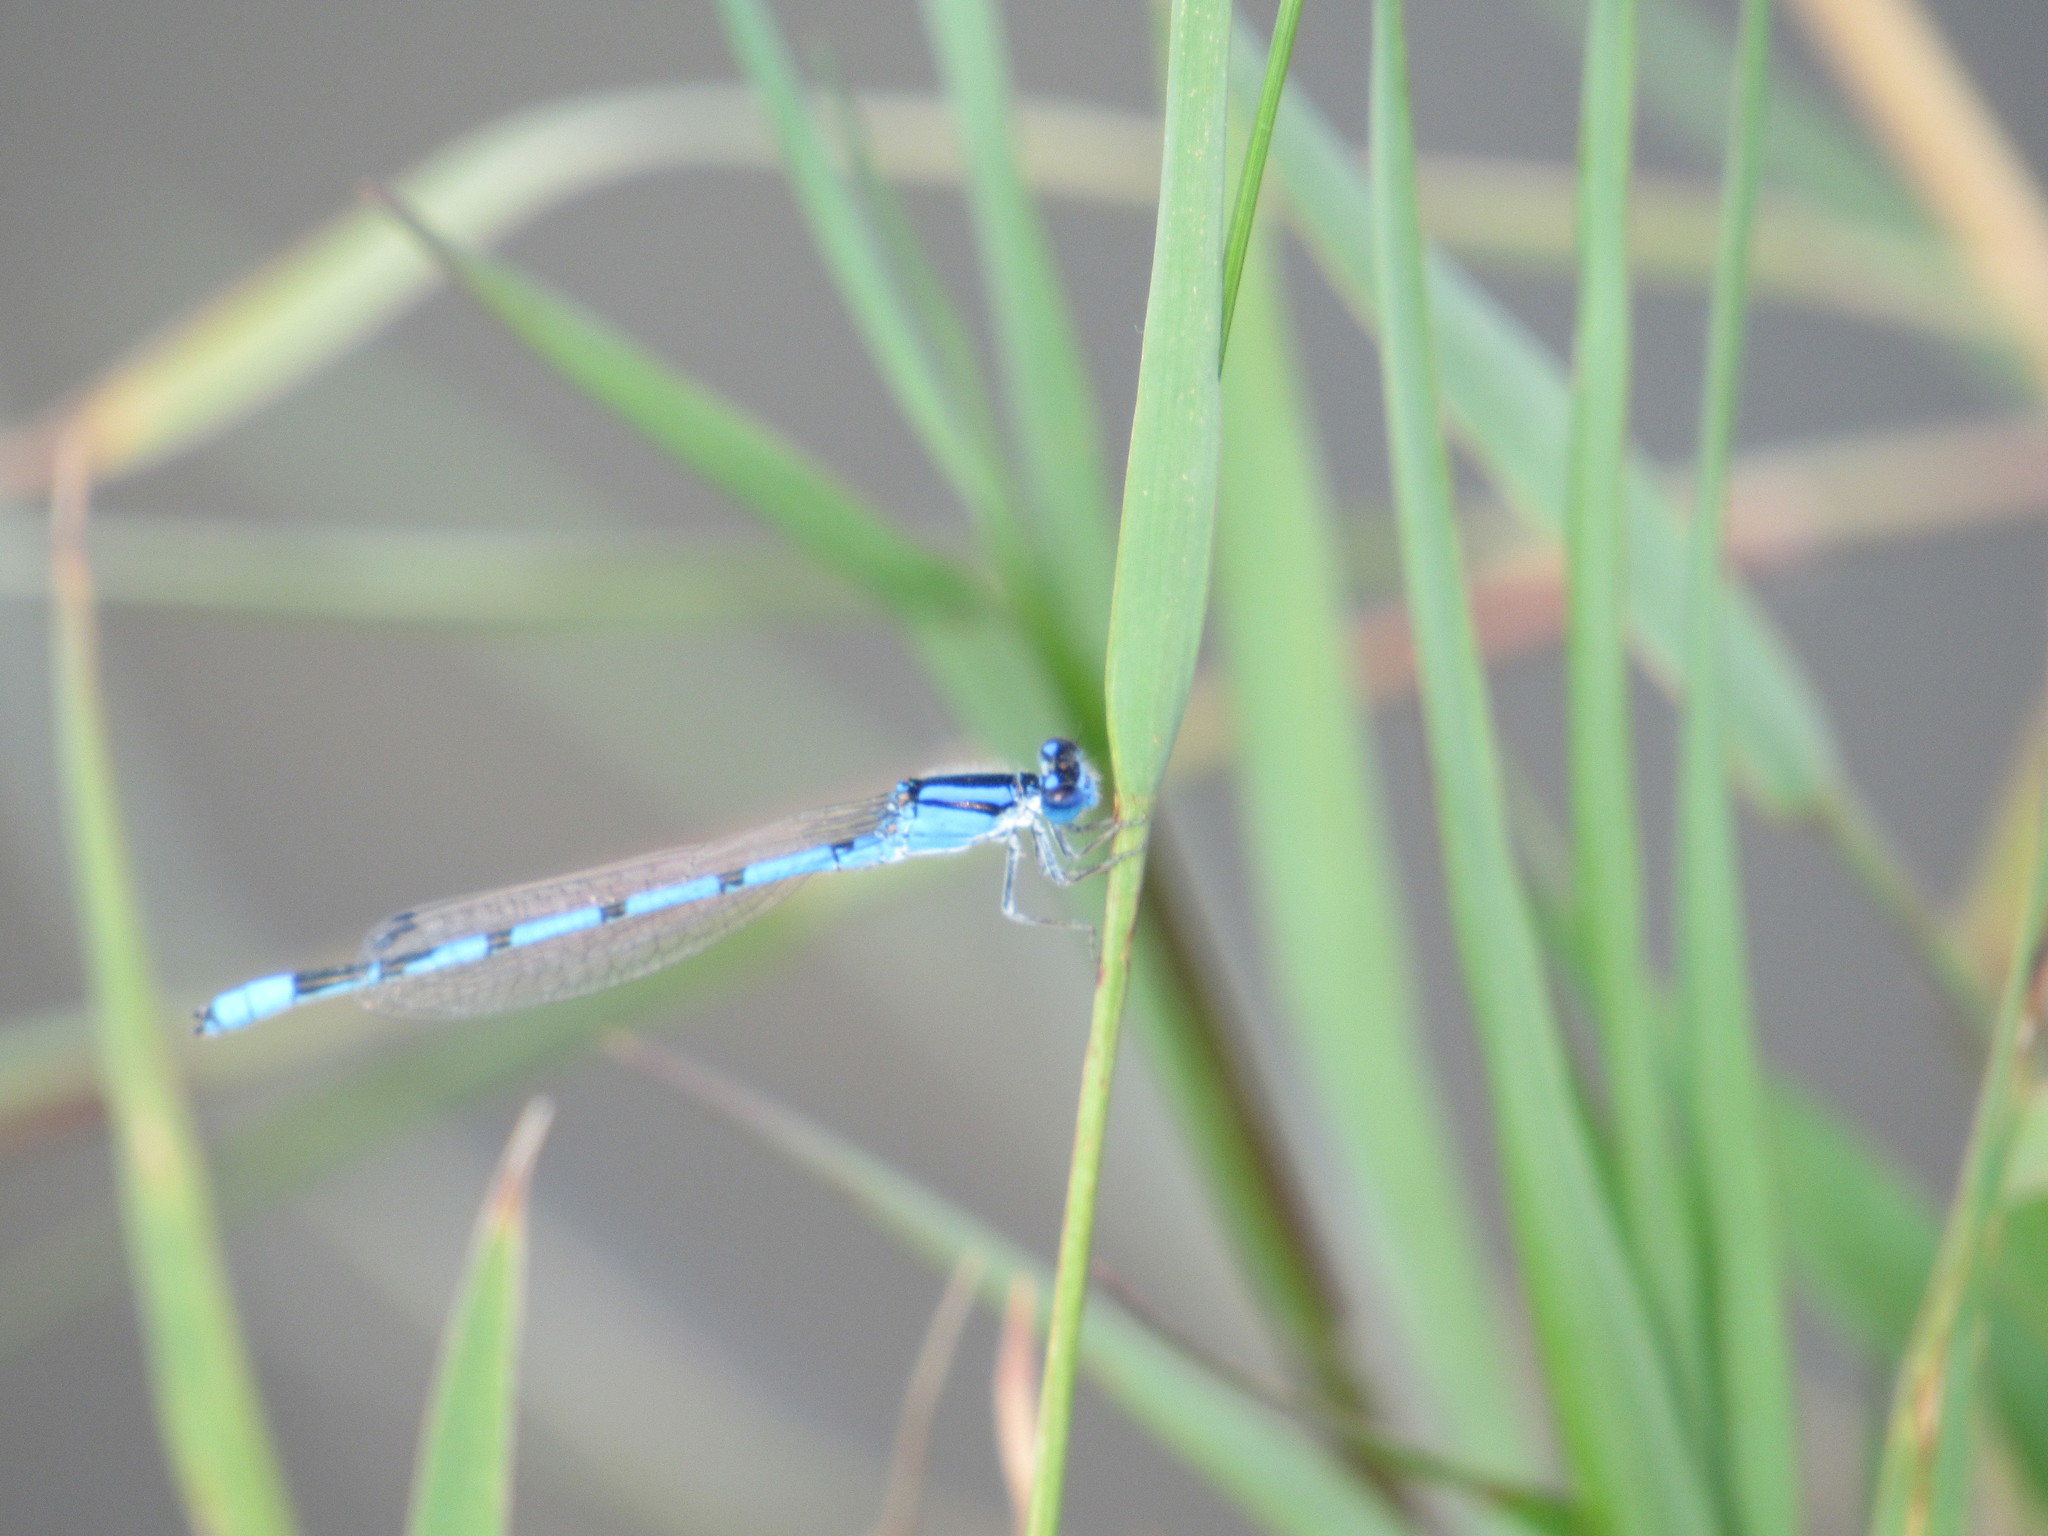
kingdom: Animalia
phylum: Arthropoda
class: Insecta
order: Odonata
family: Coenagrionidae
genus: Enallagma
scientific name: Enallagma civile
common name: Damselfly
